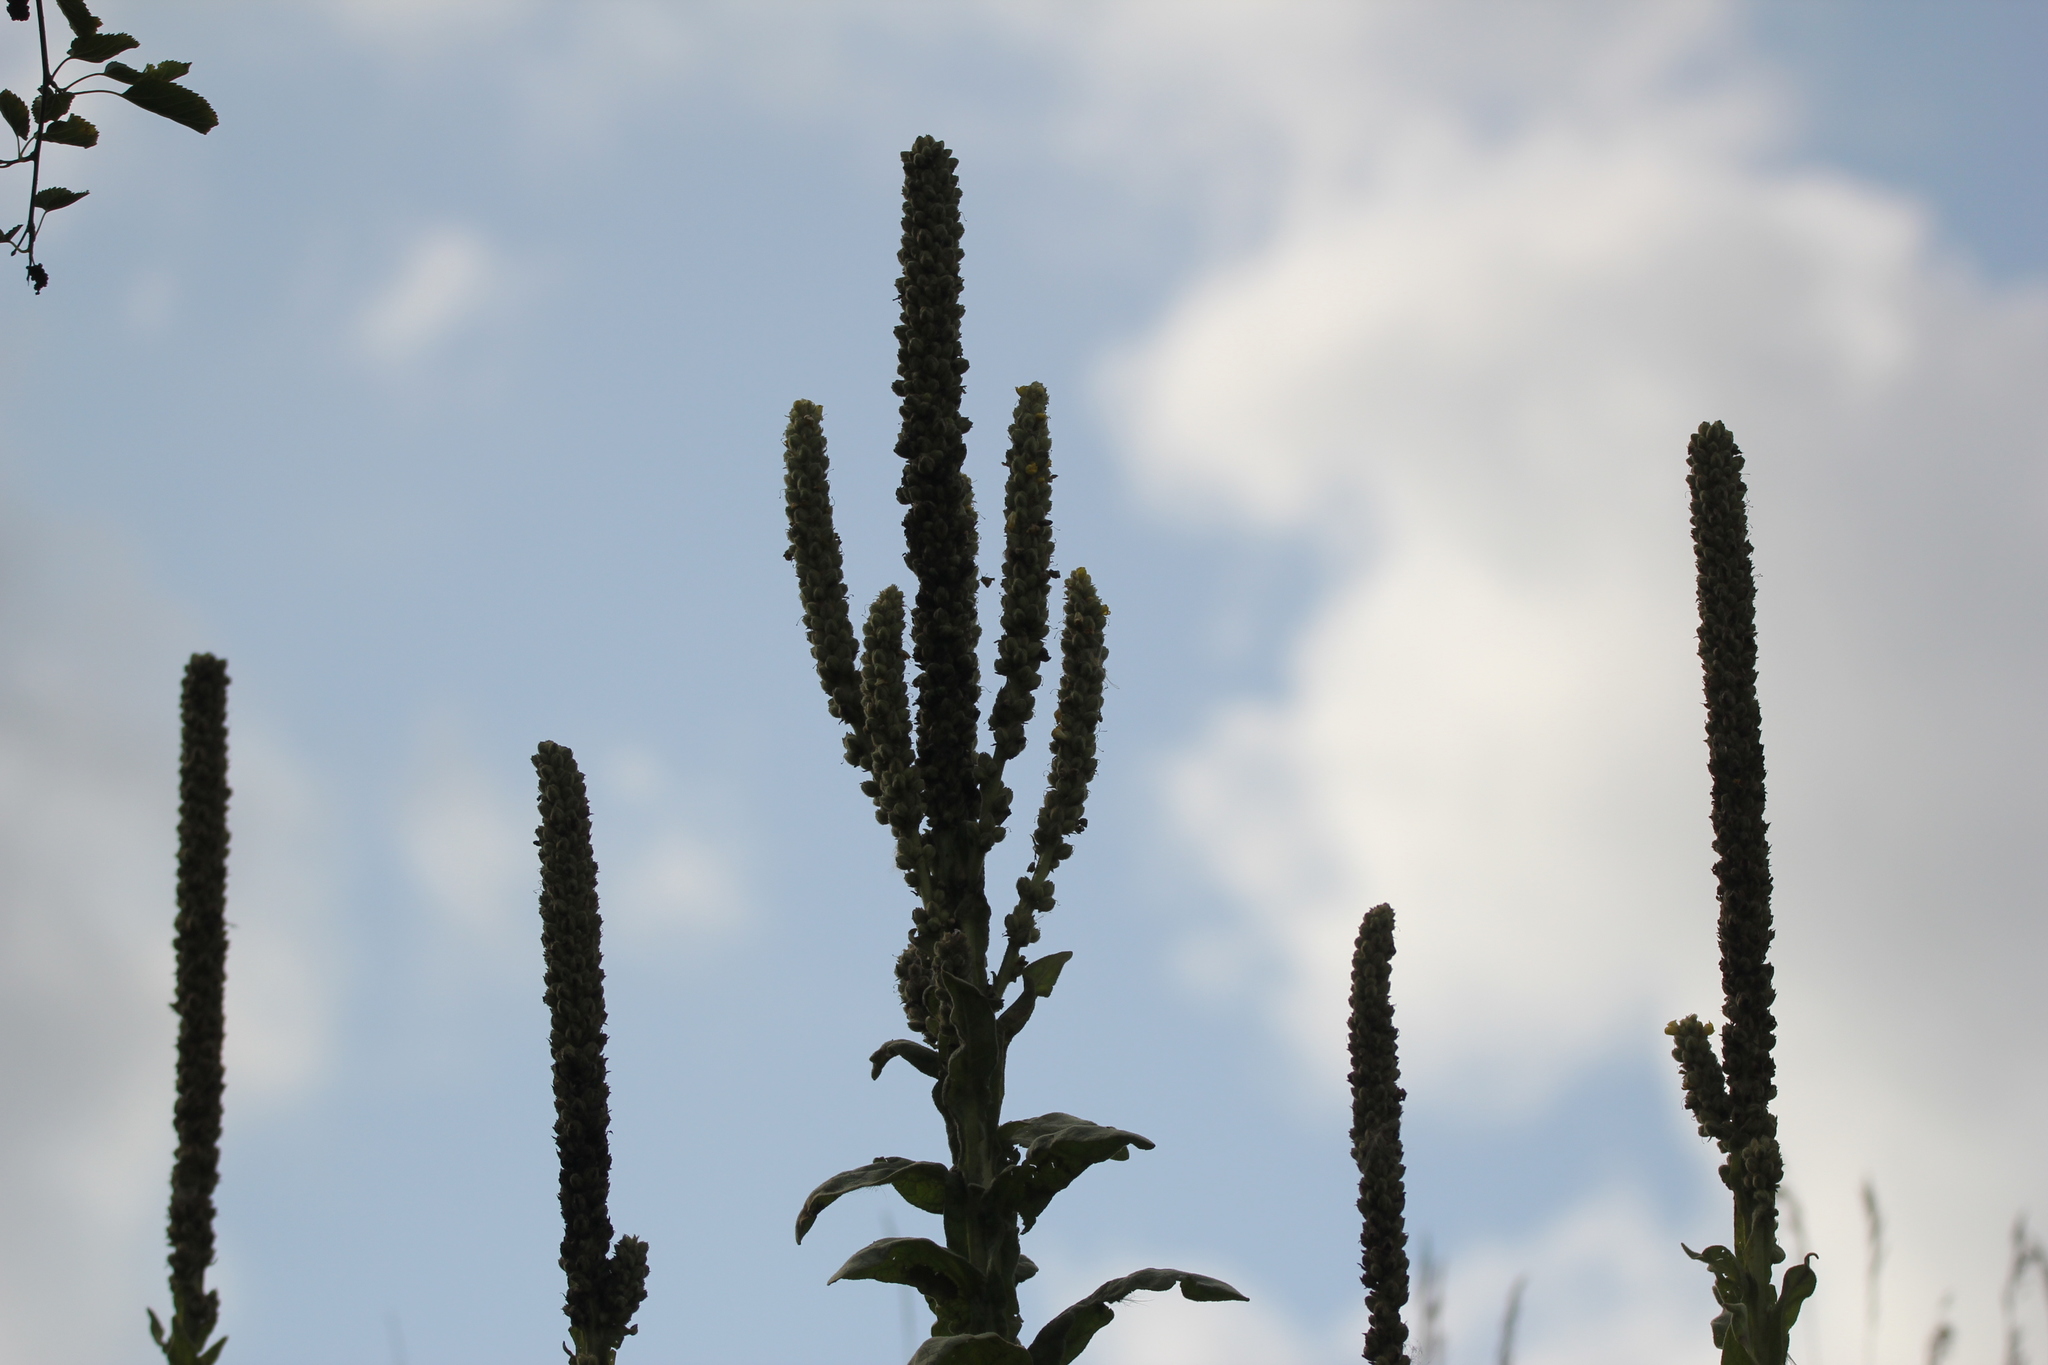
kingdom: Plantae
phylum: Tracheophyta
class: Magnoliopsida
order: Lamiales
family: Scrophulariaceae
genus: Verbascum
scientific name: Verbascum thapsus
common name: Common mullein
